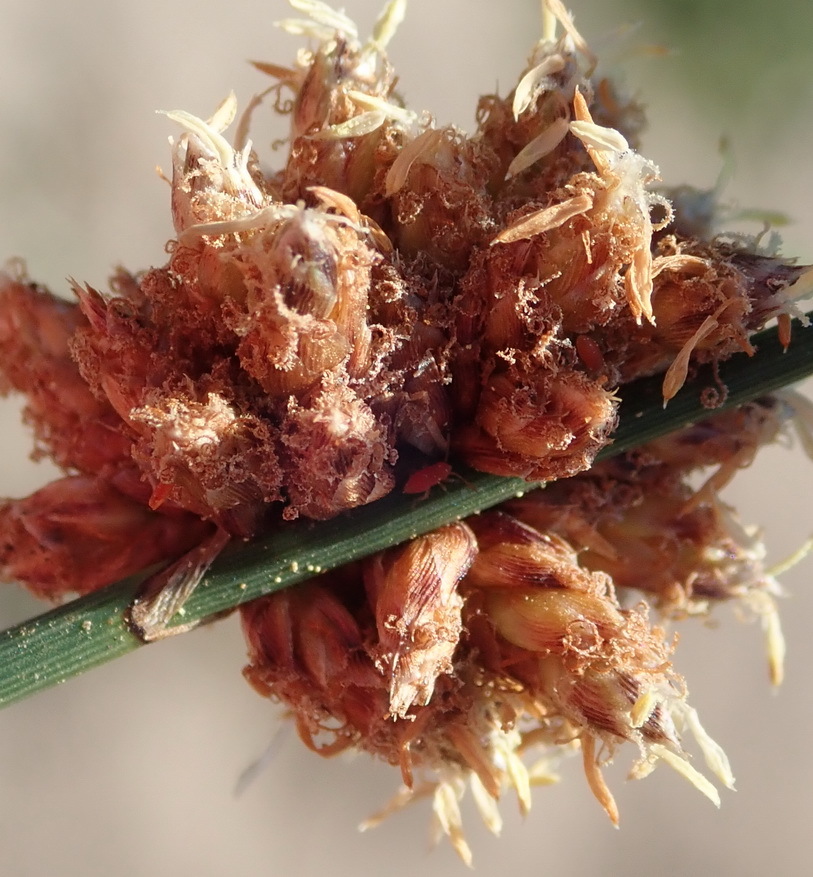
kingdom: Plantae
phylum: Tracheophyta
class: Liliopsida
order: Poales
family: Cyperaceae
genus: Ficinia
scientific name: Ficinia bulbosa
